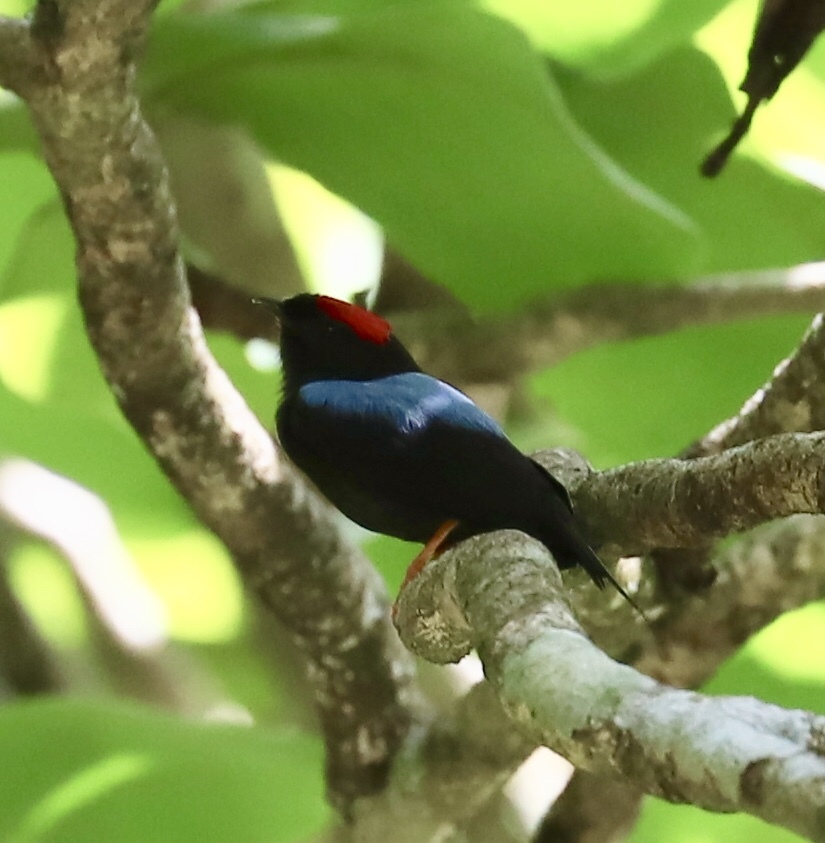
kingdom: Animalia
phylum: Chordata
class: Aves
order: Passeriformes
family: Pipridae
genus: Chiroxiphia
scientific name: Chiroxiphia lanceolata
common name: Lance-tailed manakin
